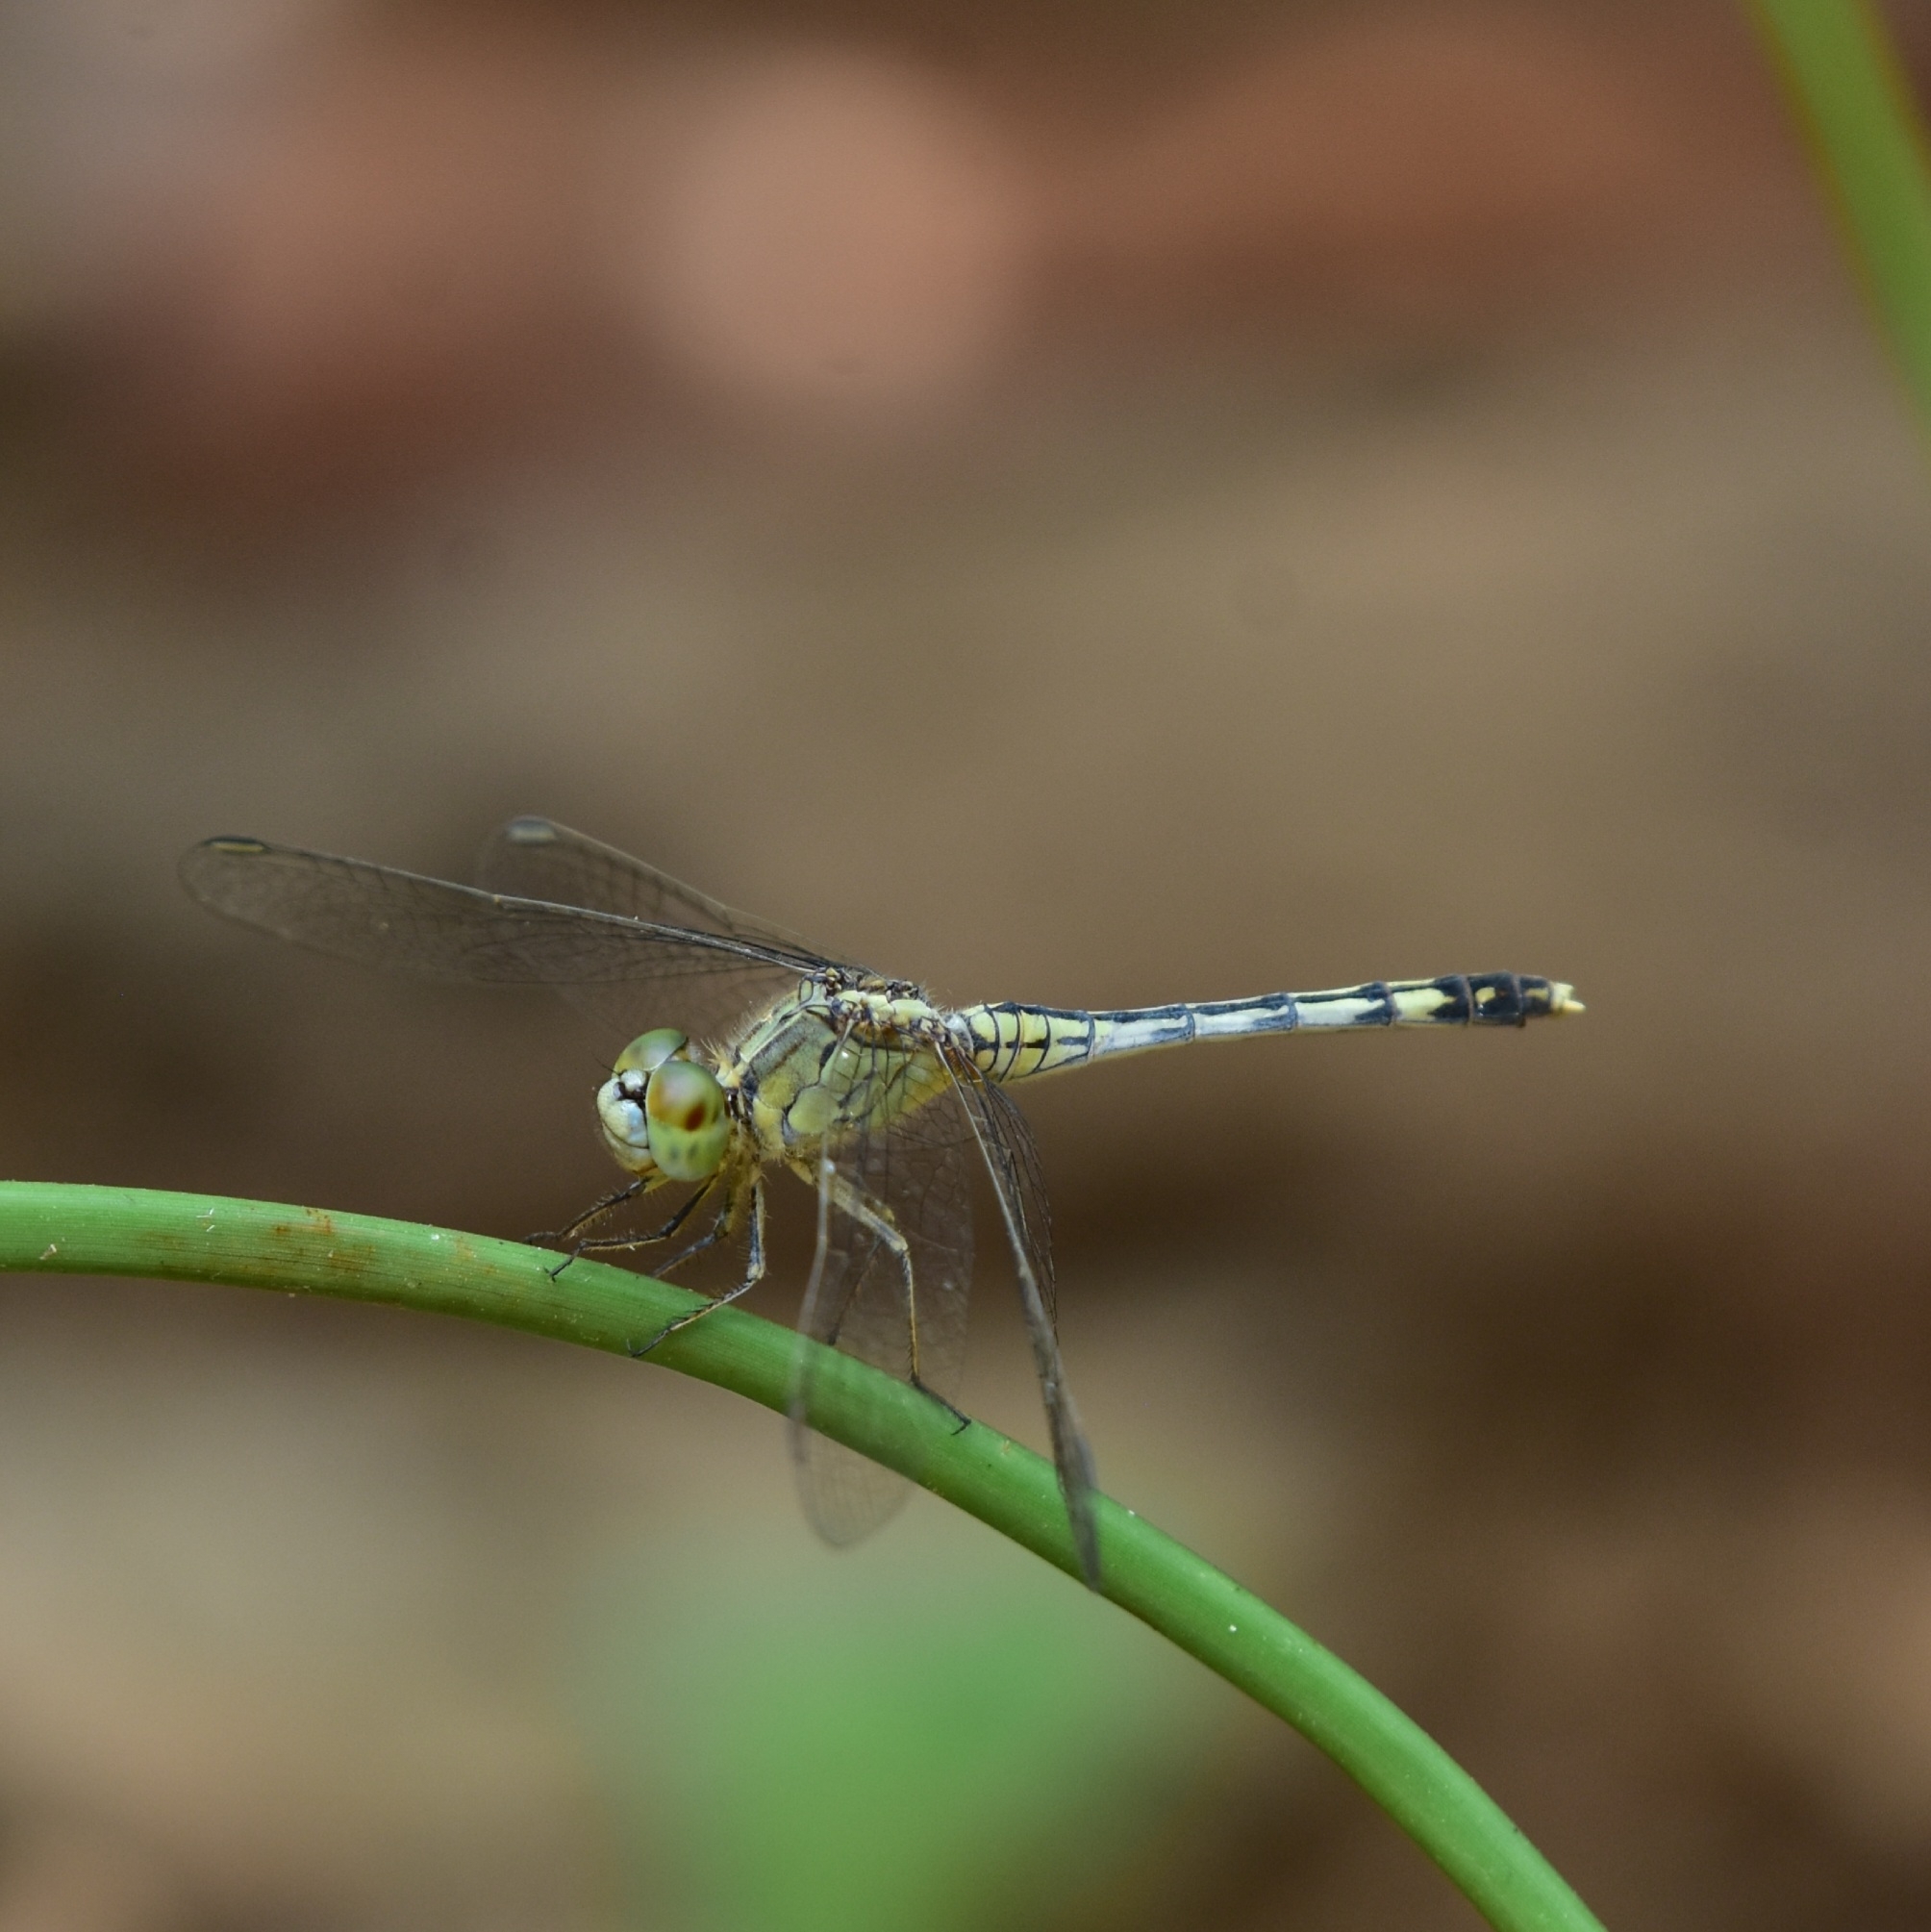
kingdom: Animalia
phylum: Arthropoda
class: Insecta
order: Odonata
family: Libellulidae
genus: Diplacodes
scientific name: Diplacodes trivialis
